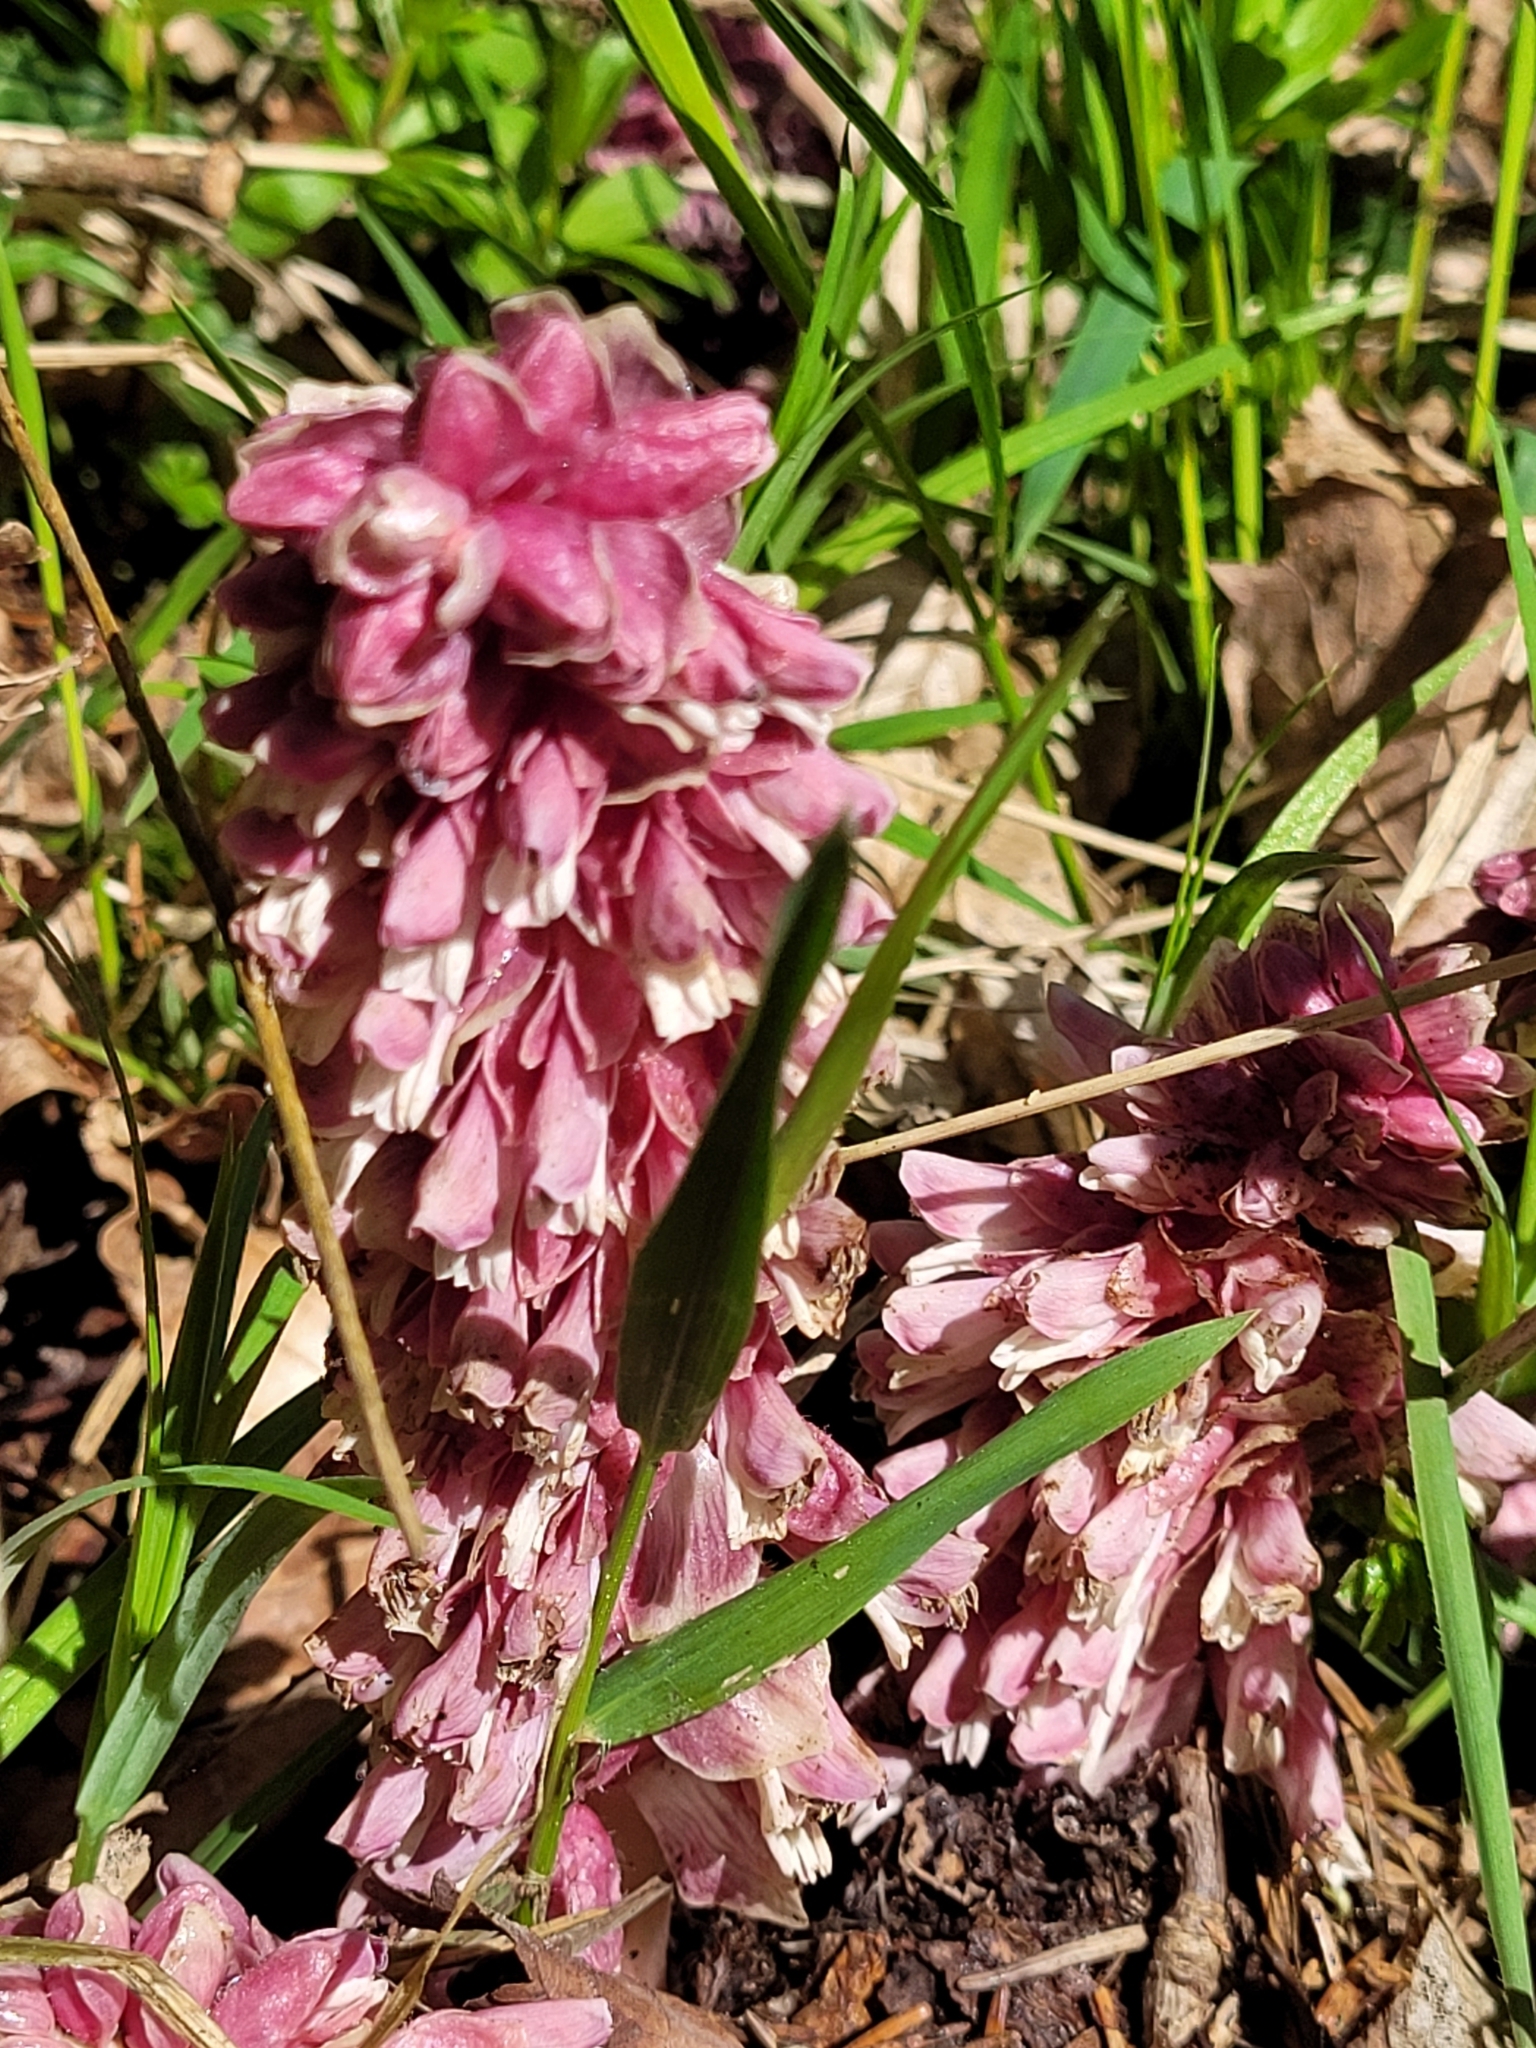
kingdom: Plantae
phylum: Tracheophyta
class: Magnoliopsida
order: Lamiales
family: Orobanchaceae
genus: Lathraea
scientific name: Lathraea squamaria
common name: Toothwort
